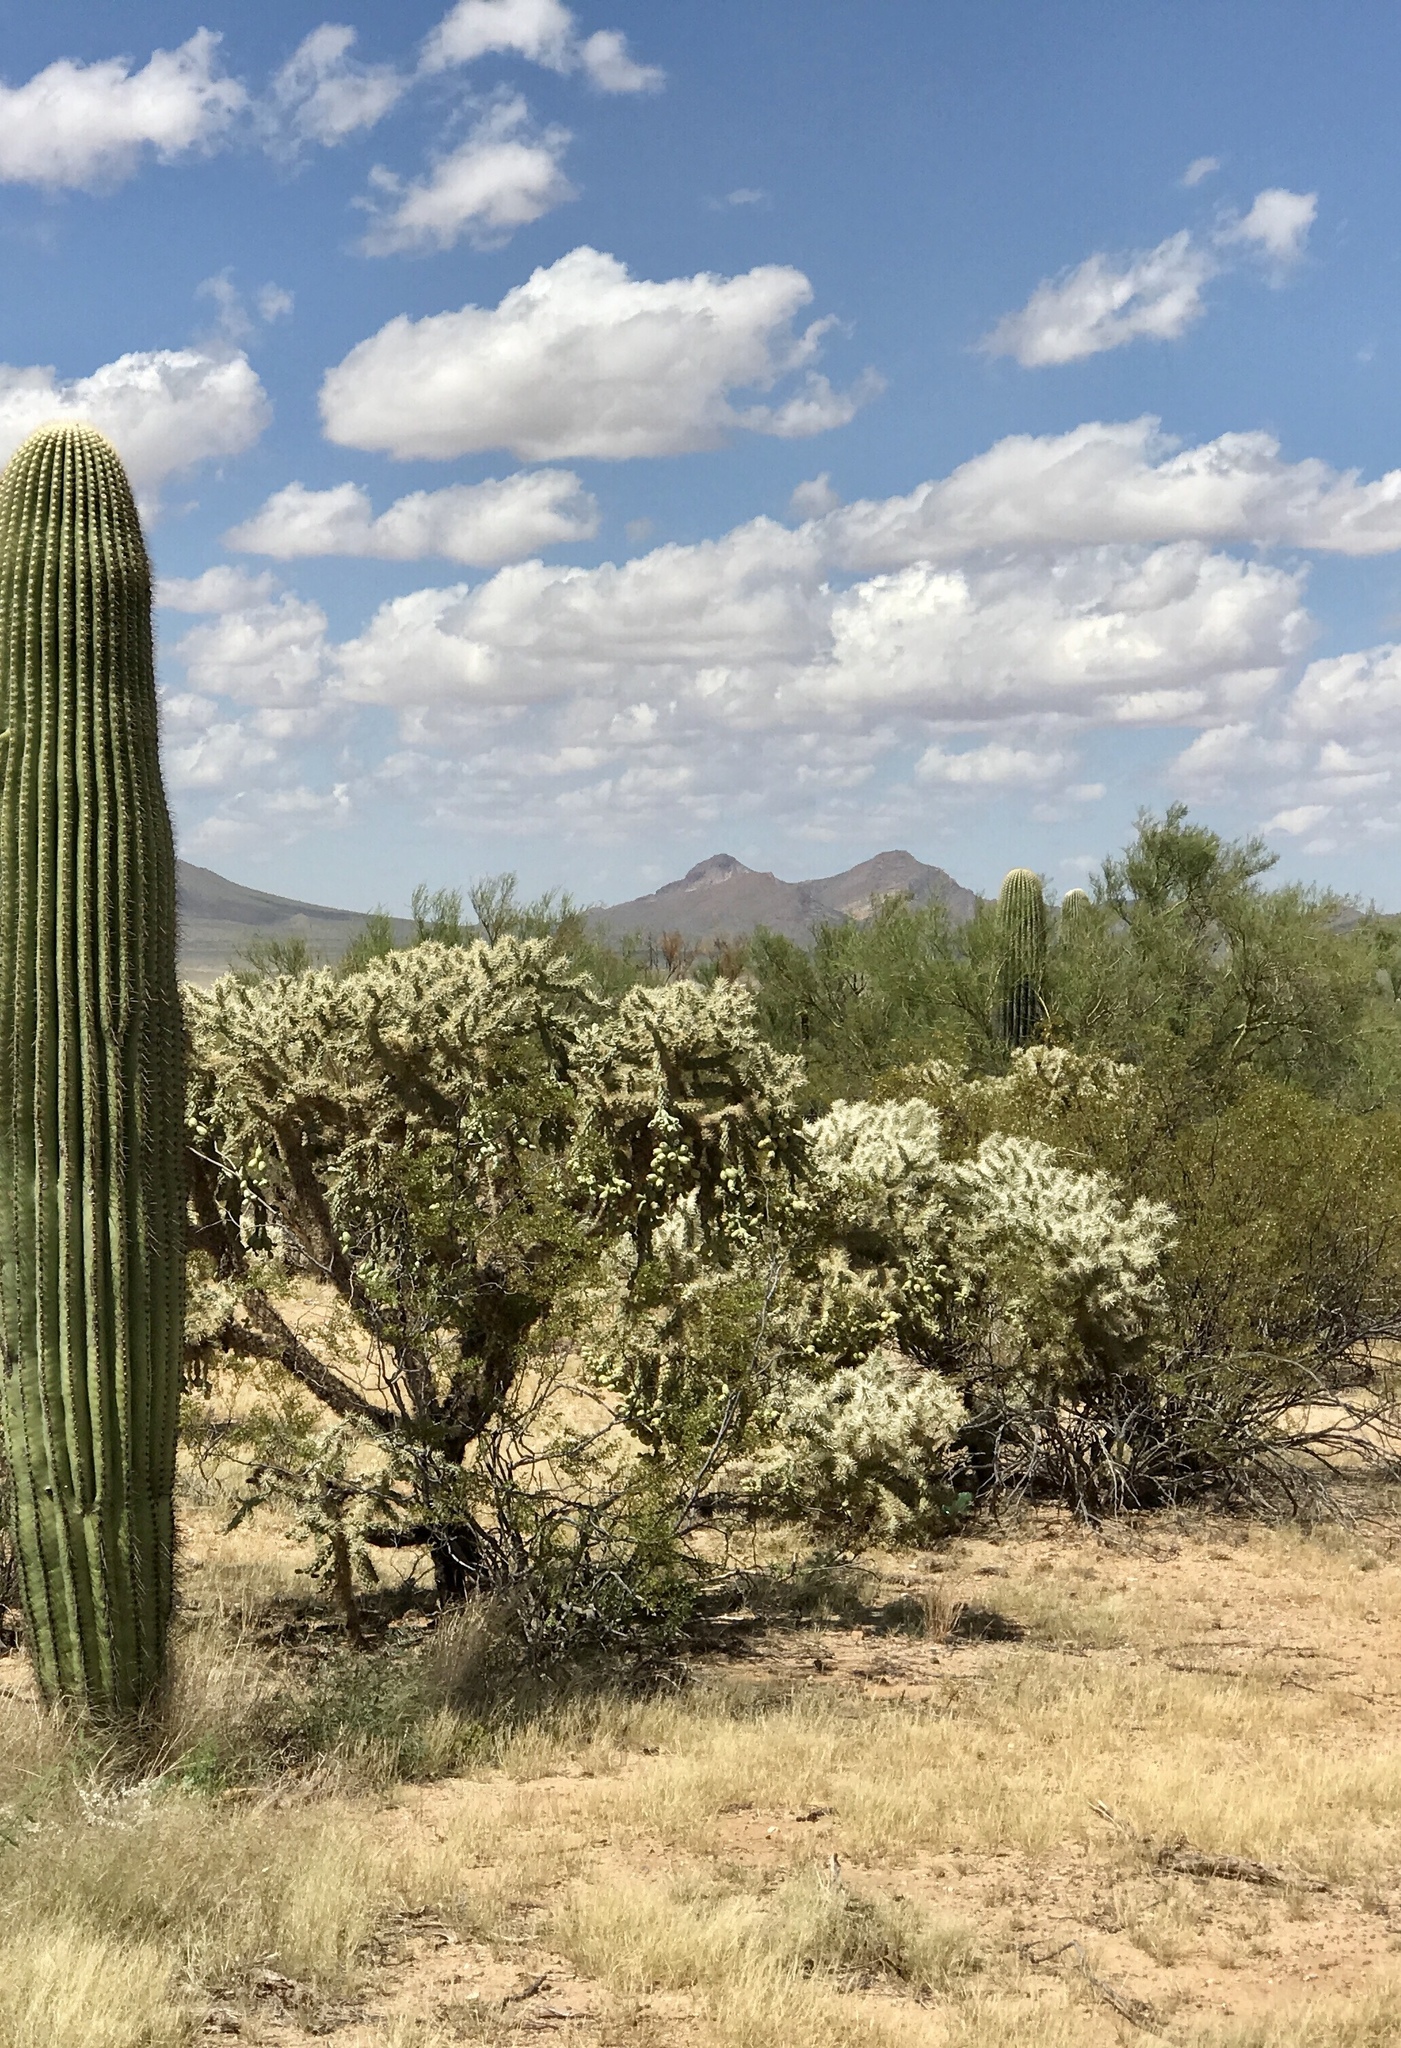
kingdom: Plantae
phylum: Tracheophyta
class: Magnoliopsida
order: Caryophyllales
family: Cactaceae
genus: Cylindropuntia
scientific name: Cylindropuntia fulgida
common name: Jumping cholla
